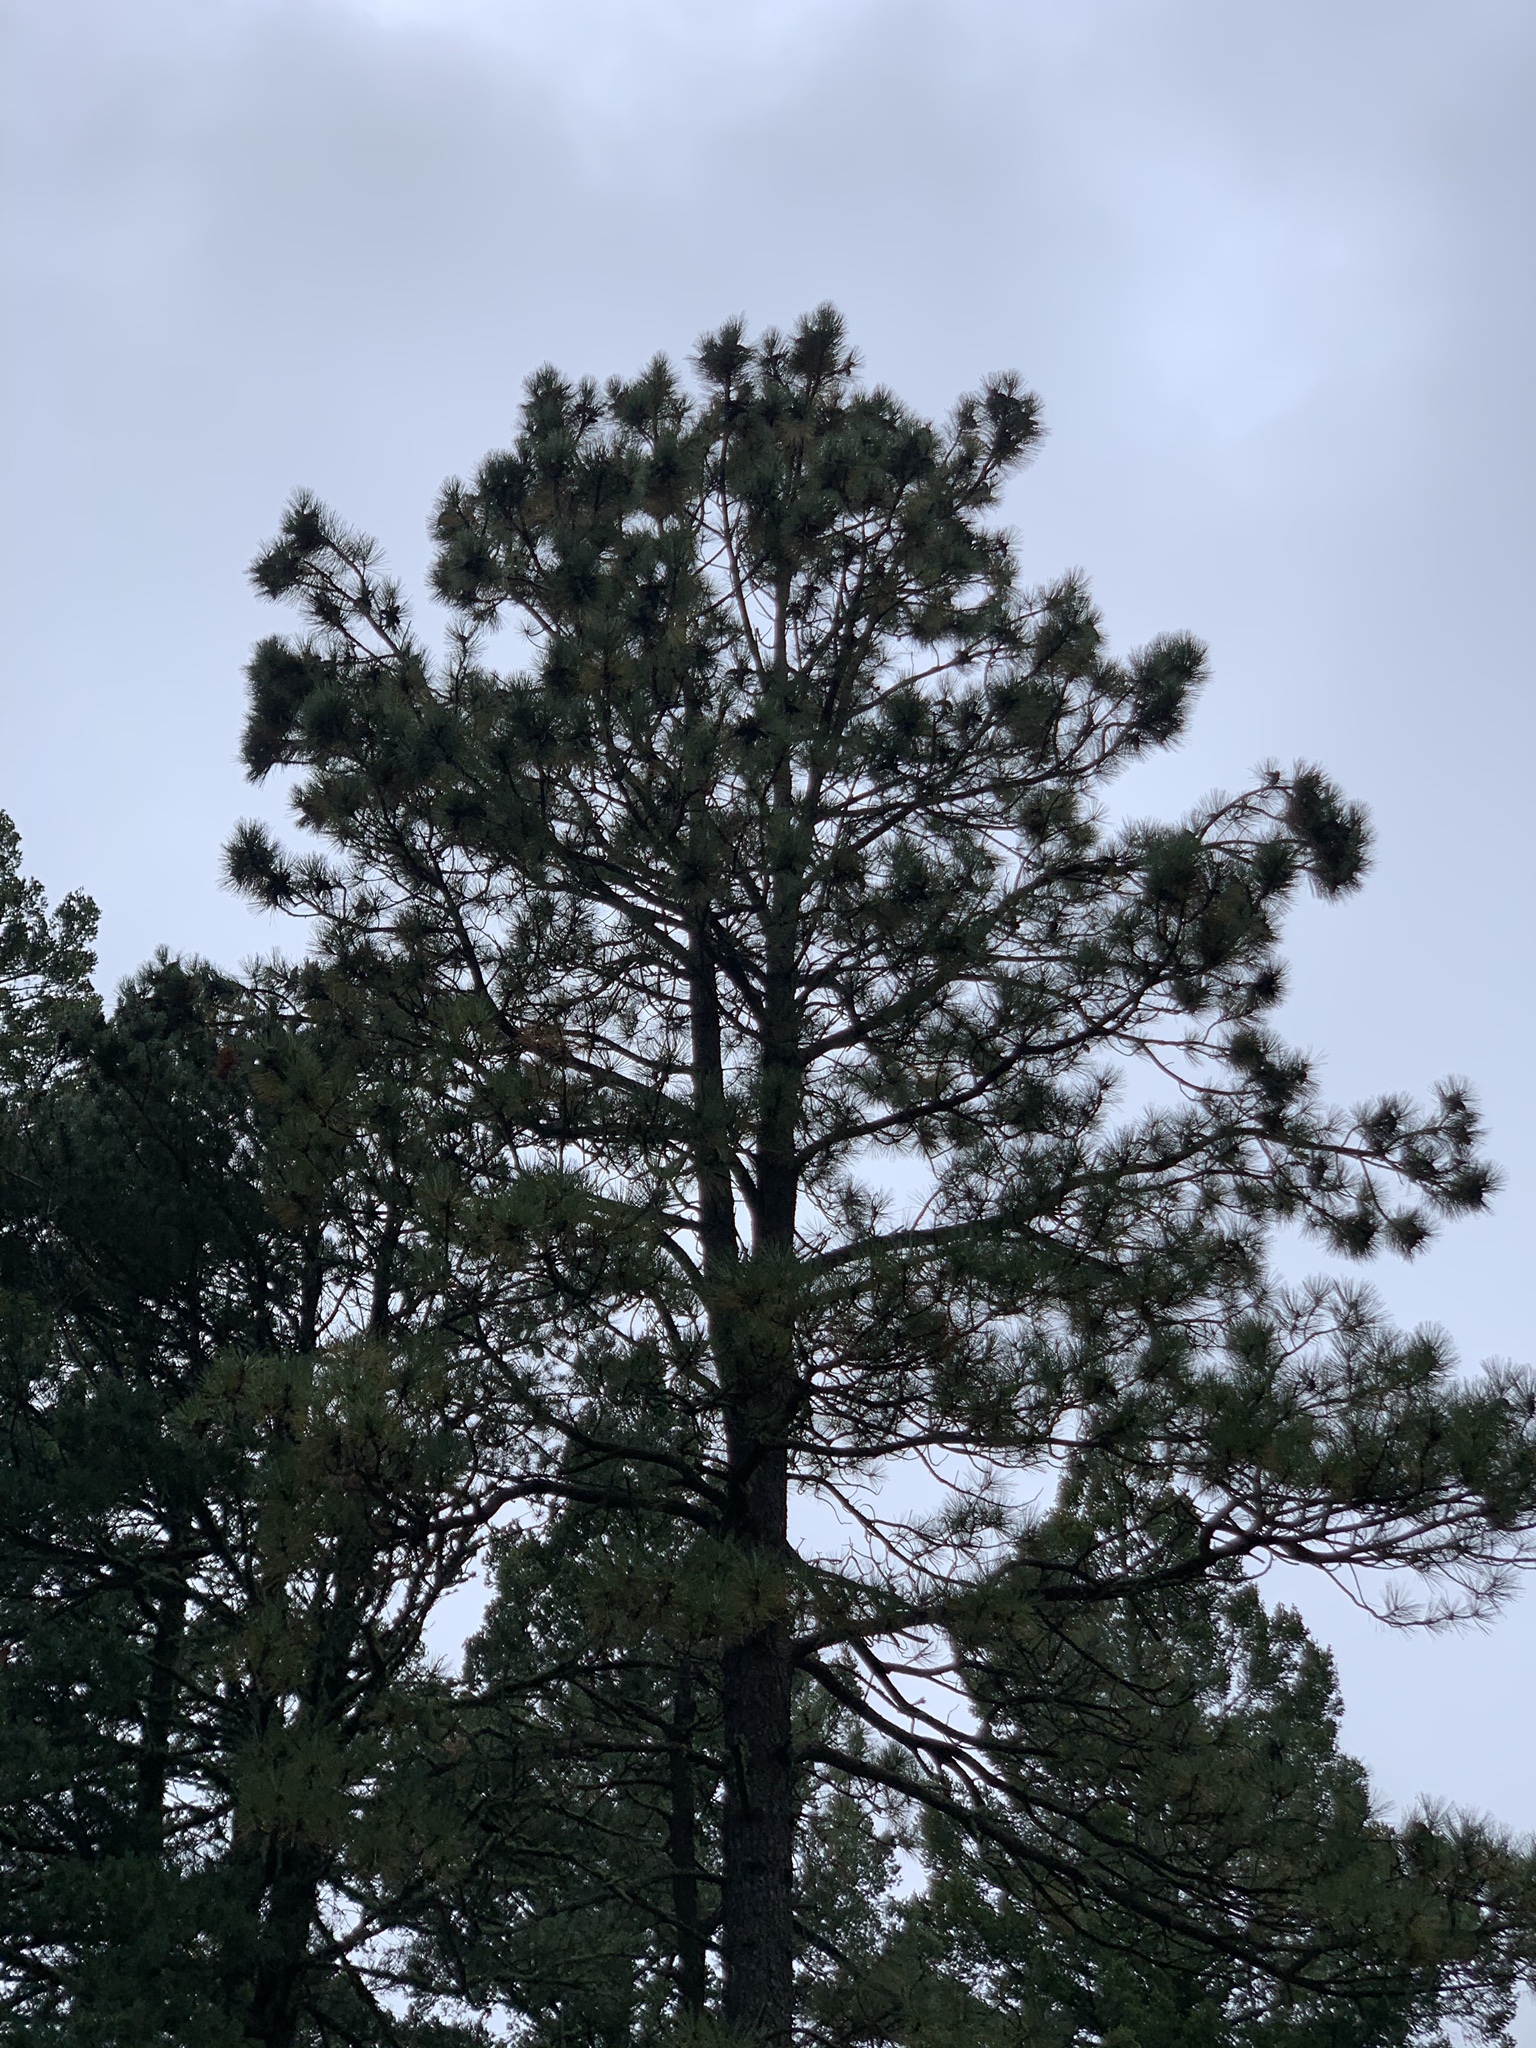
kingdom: Plantae
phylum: Tracheophyta
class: Pinopsida
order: Pinales
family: Pinaceae
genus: Pinus
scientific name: Pinus ponderosa
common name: Western yellow-pine
